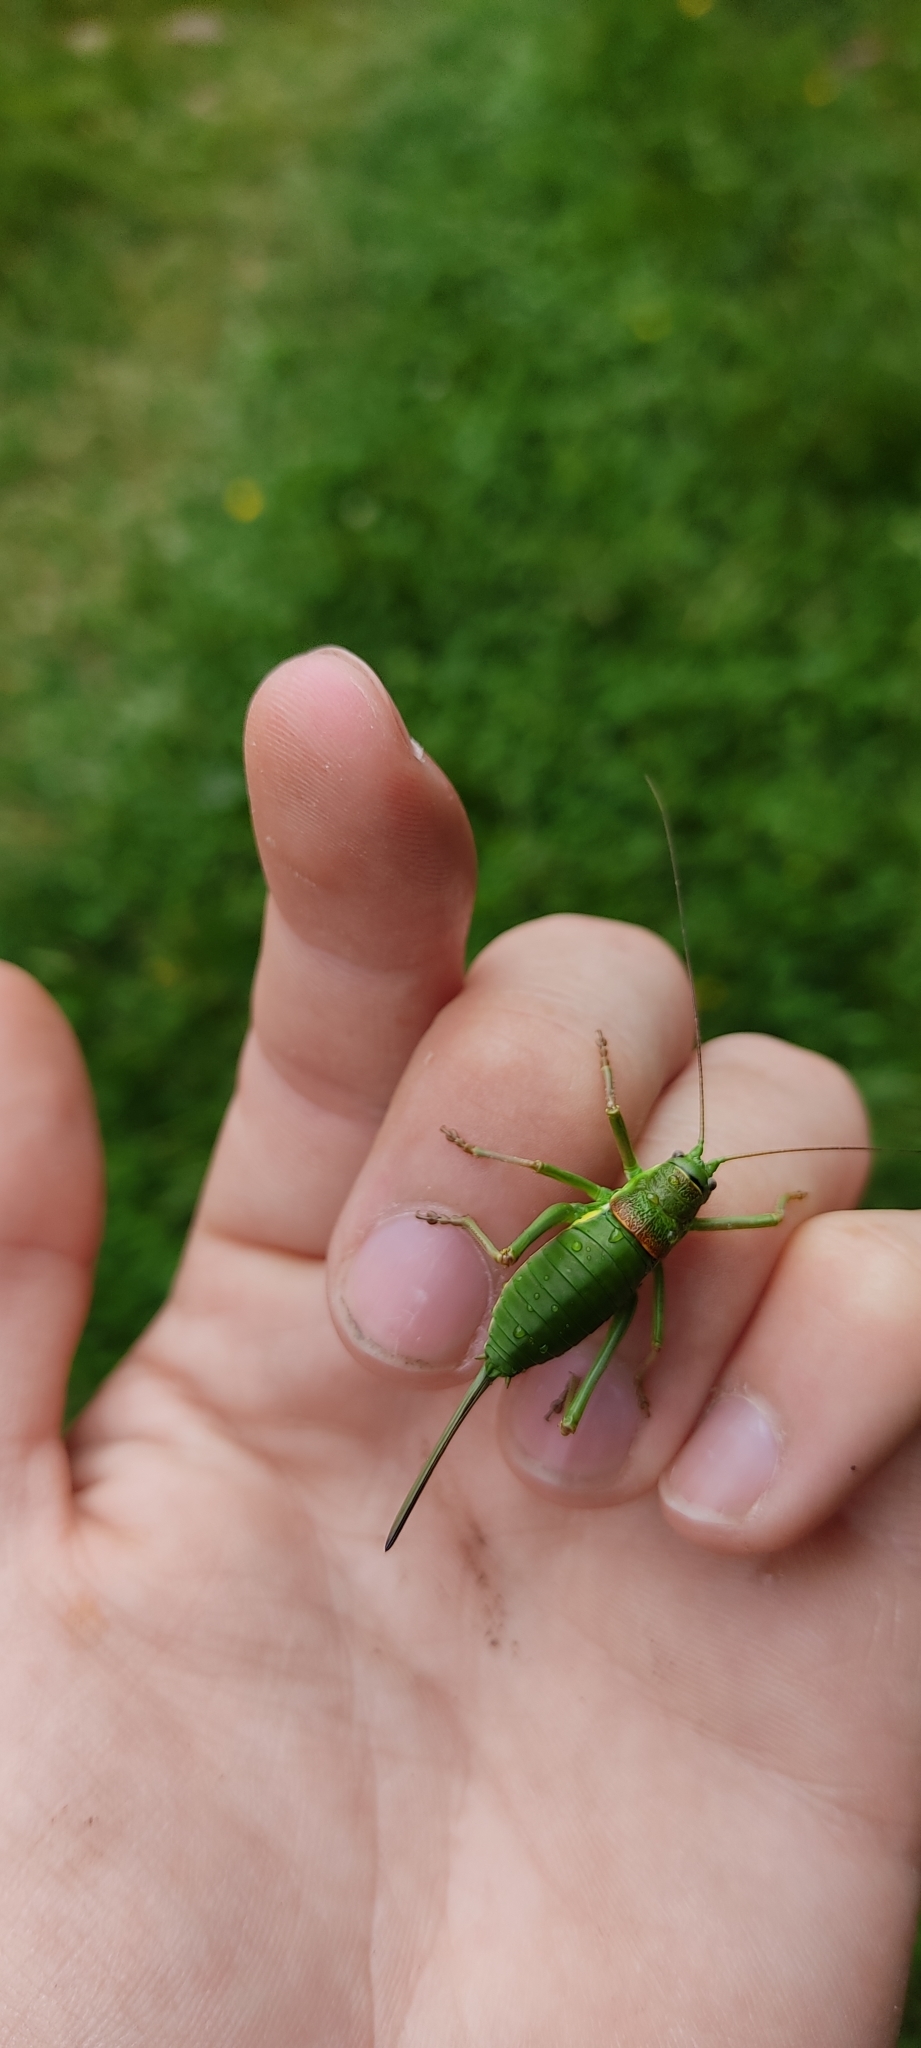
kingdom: Animalia
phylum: Arthropoda
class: Insecta
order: Orthoptera
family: Tettigoniidae
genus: Ephippiger
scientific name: Ephippiger diurnus
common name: Western saddle bush-cricket
